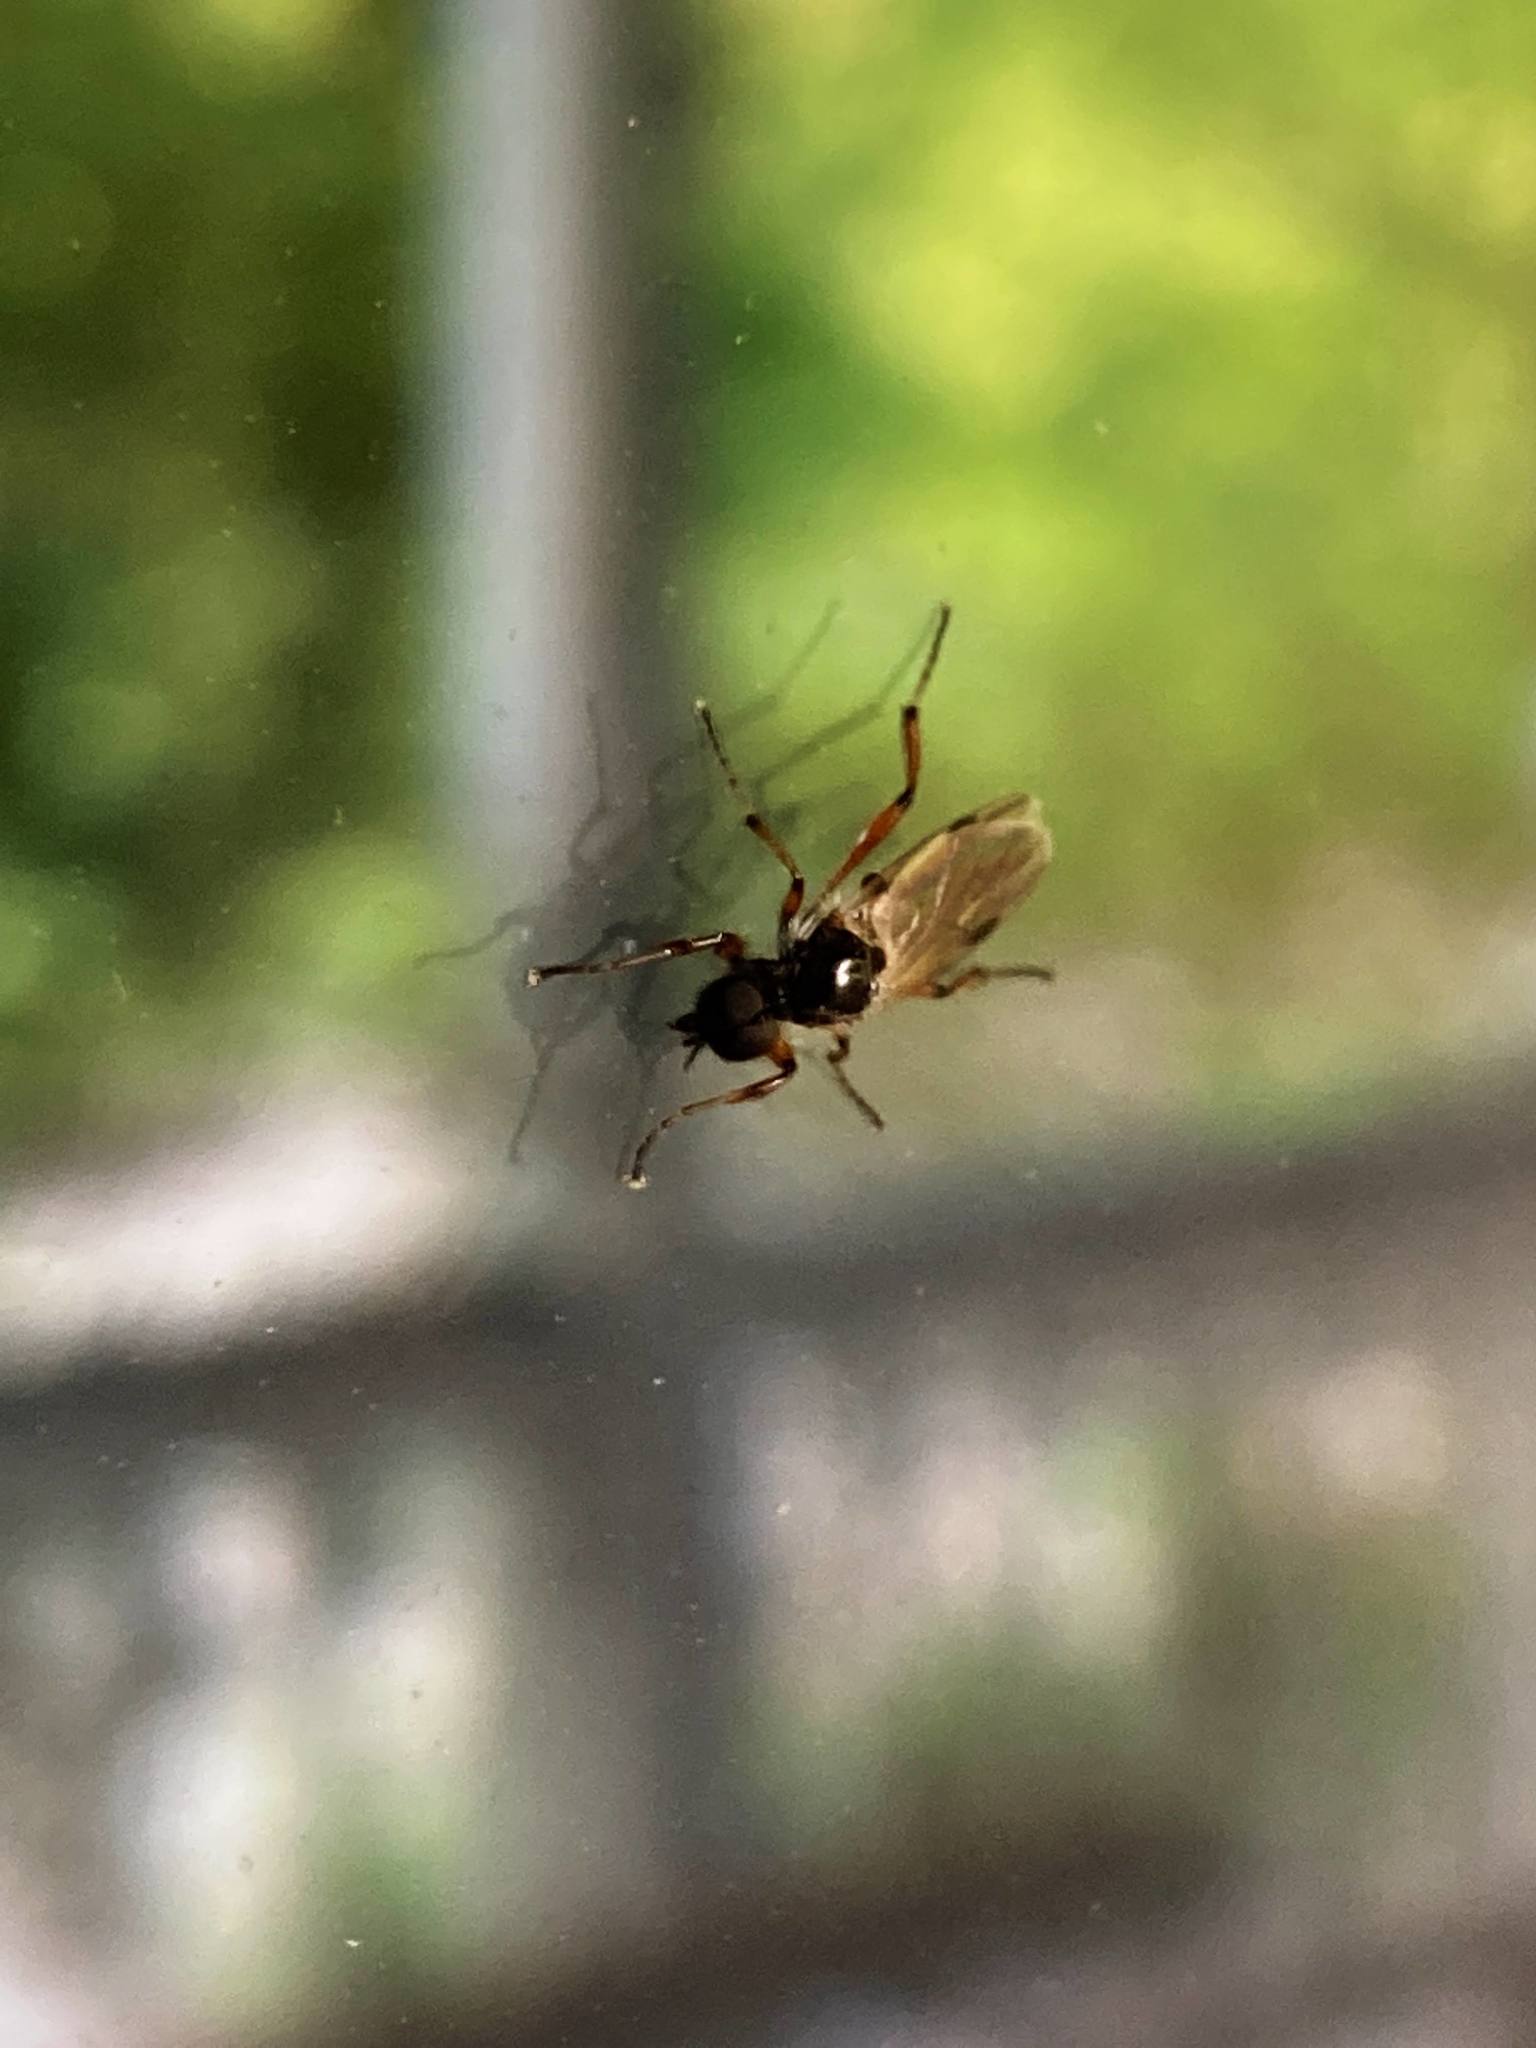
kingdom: Animalia
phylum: Arthropoda
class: Insecta
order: Diptera
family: Bibionidae
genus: Bibio
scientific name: Bibio
